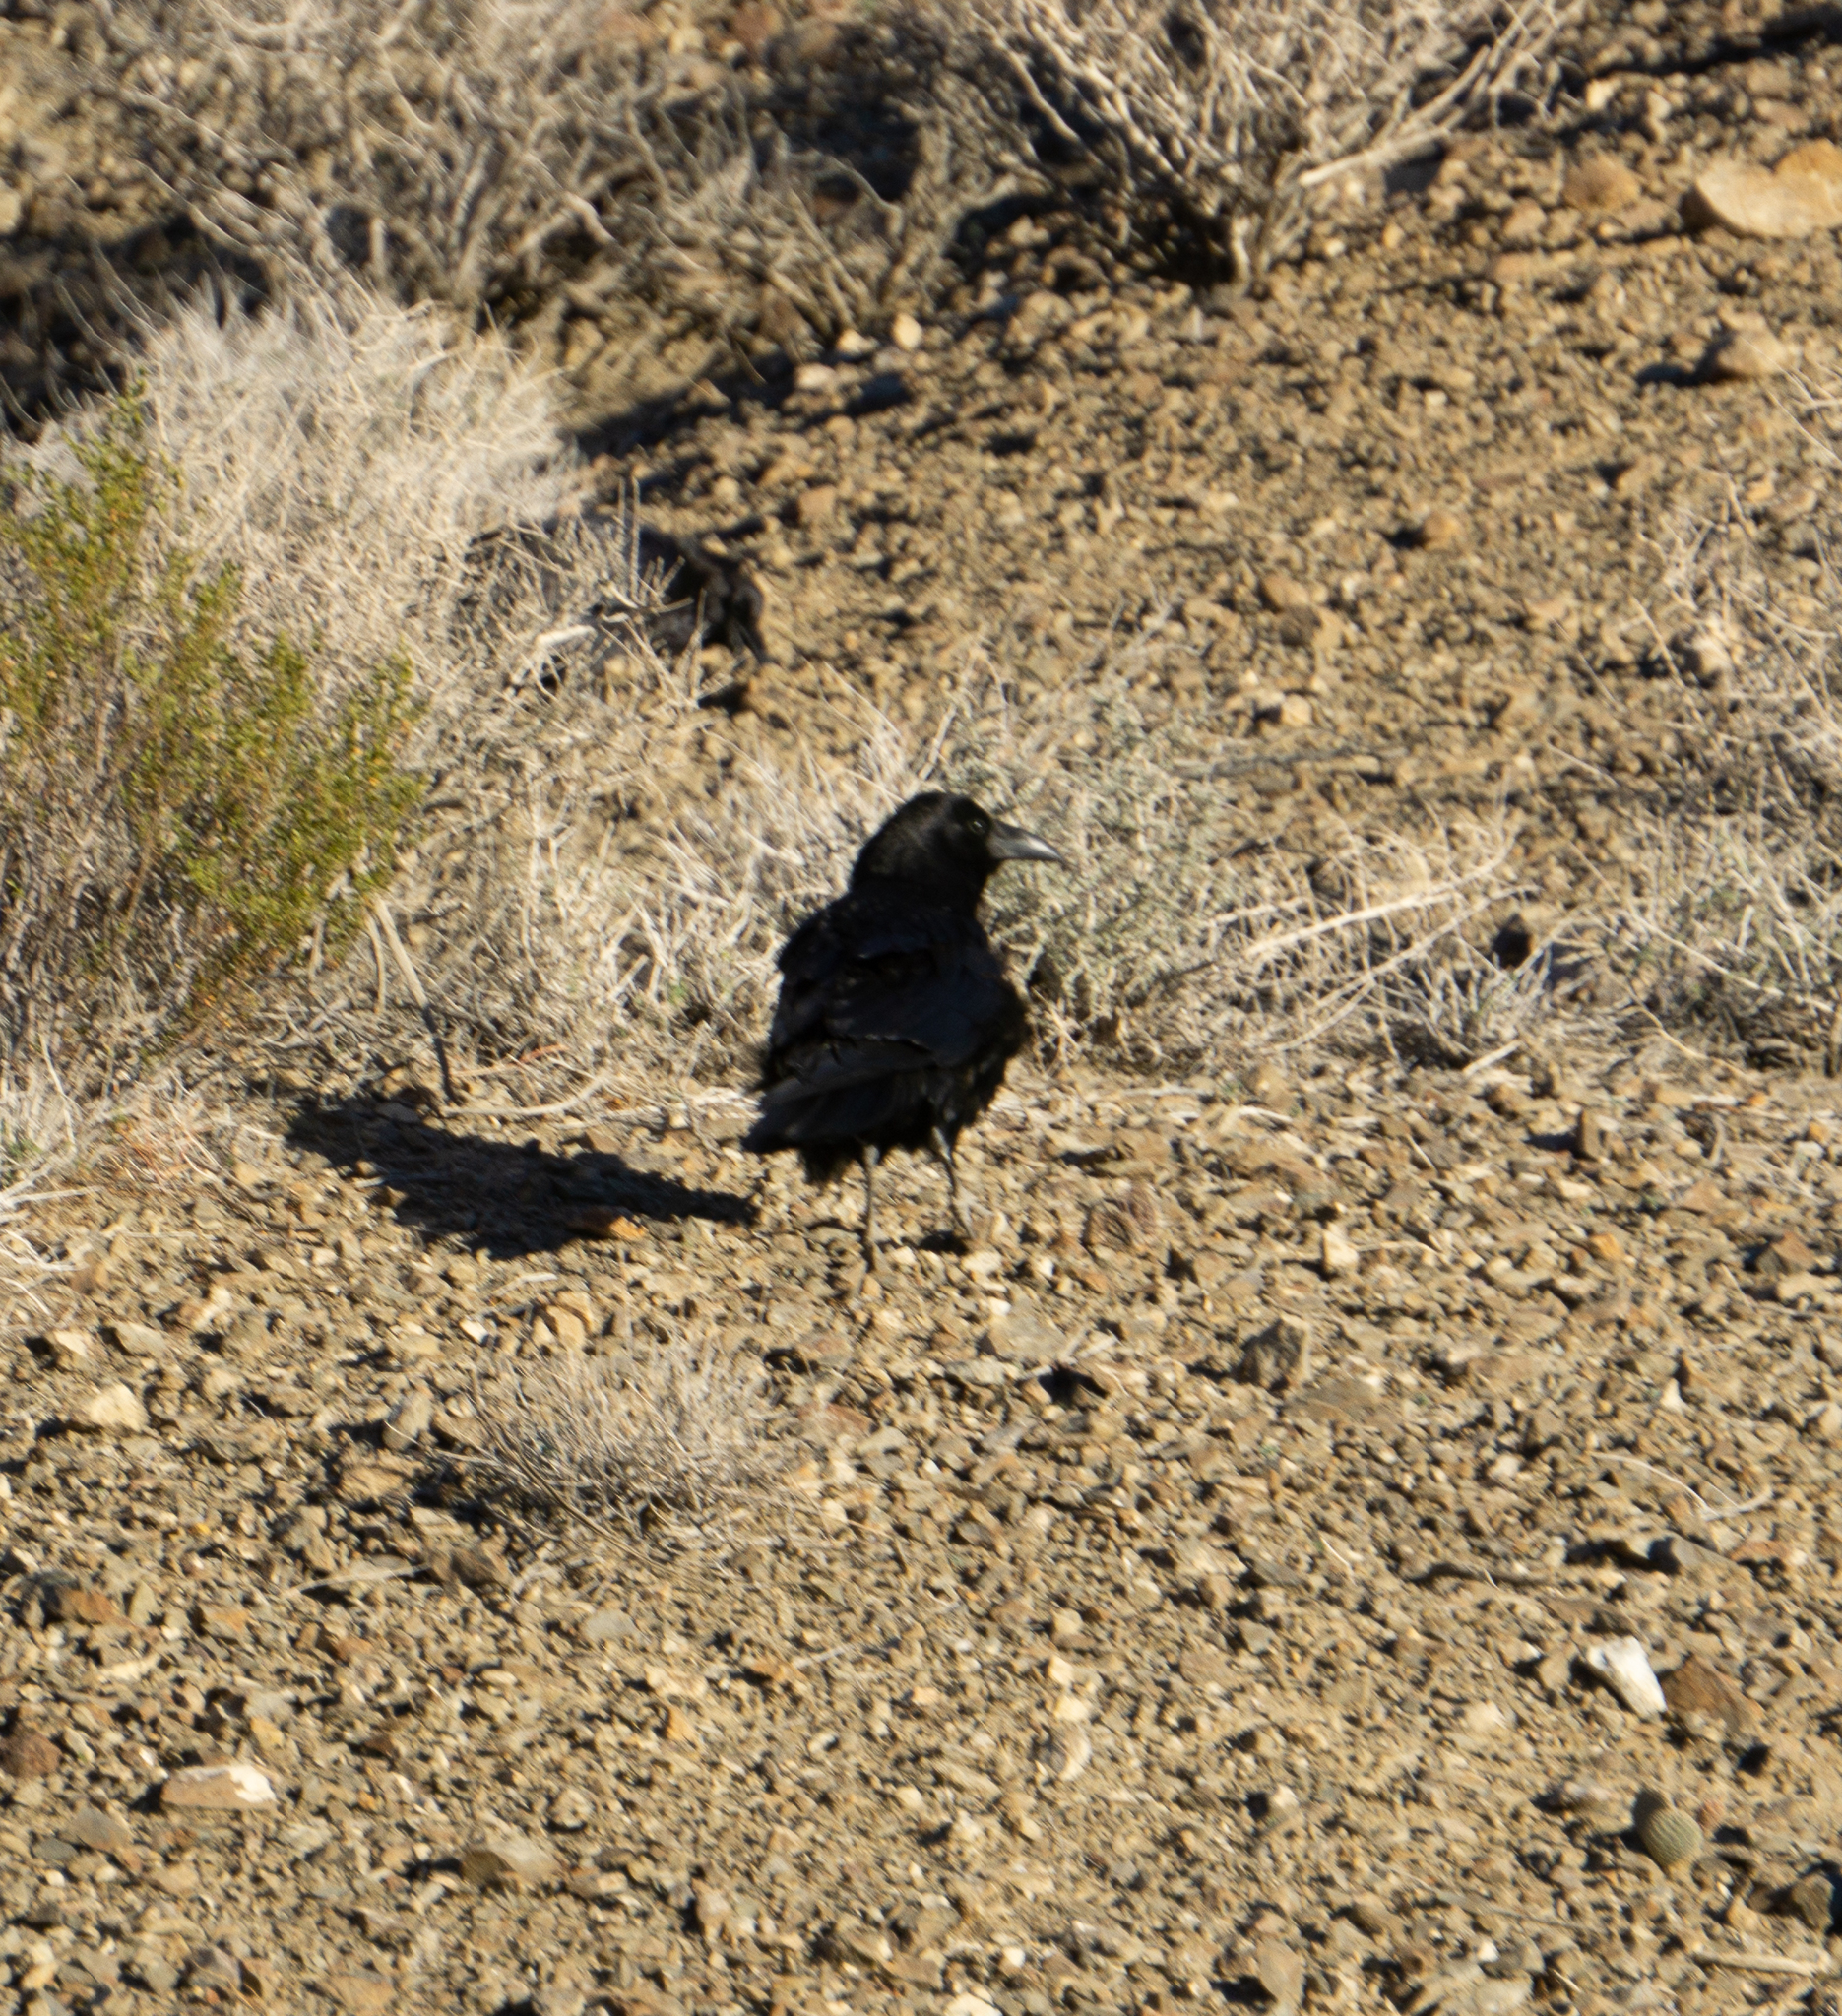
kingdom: Animalia
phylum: Chordata
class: Aves
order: Passeriformes
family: Corvidae
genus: Corvus
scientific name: Corvus corax
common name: Common raven
